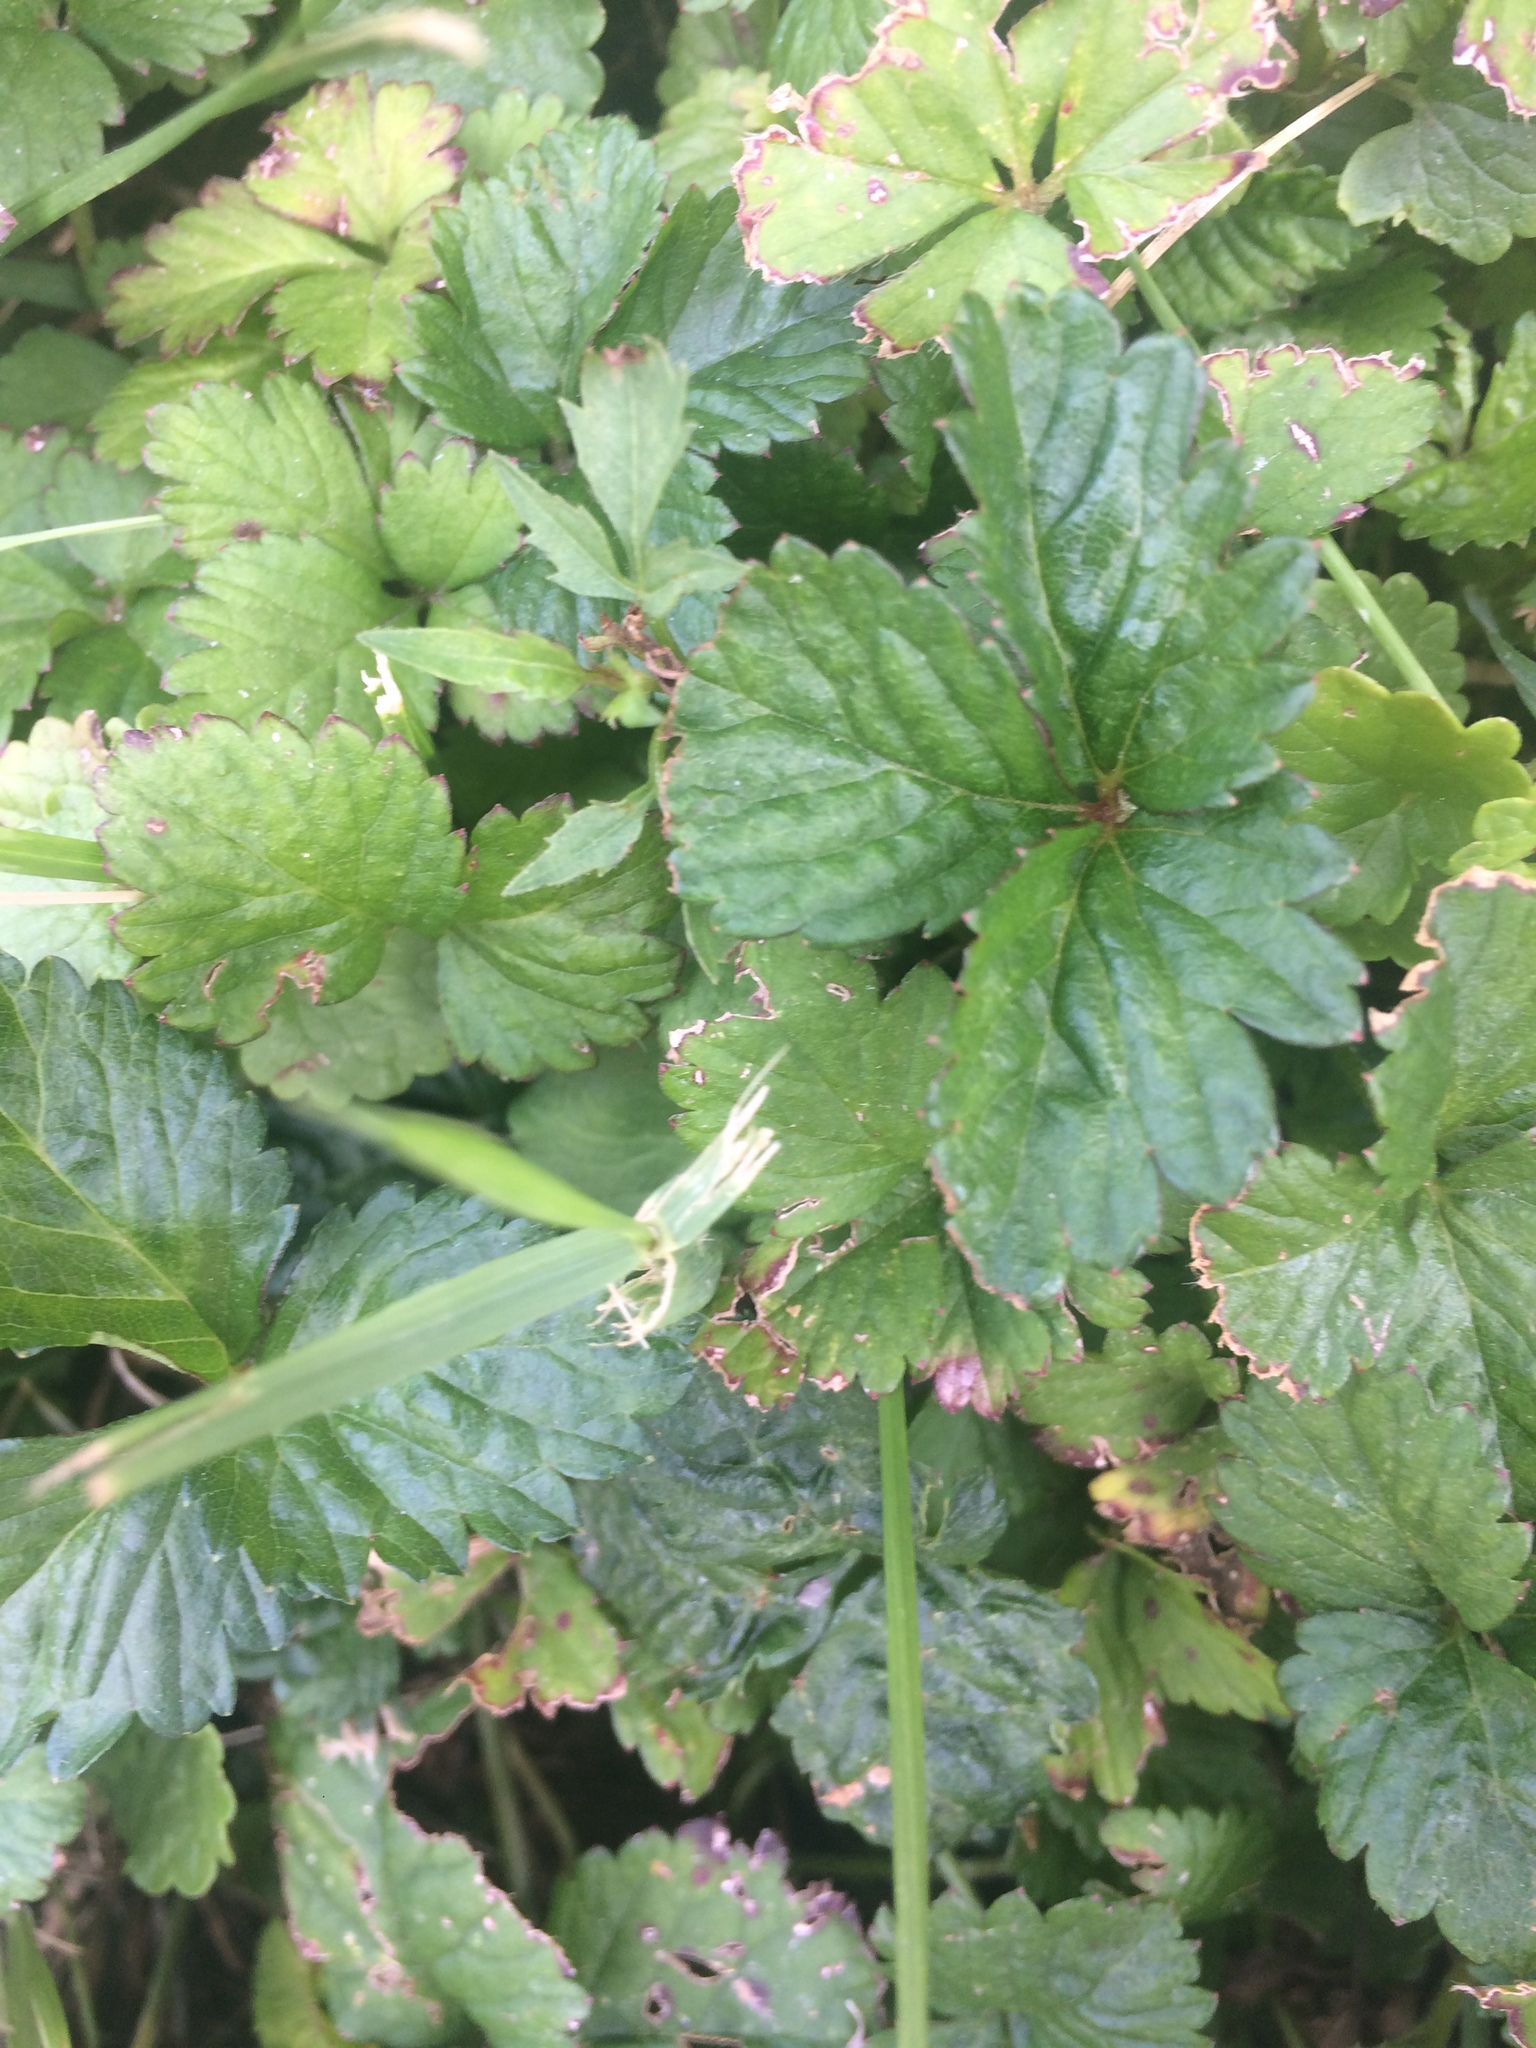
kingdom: Plantae
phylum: Tracheophyta
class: Magnoliopsida
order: Rosales
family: Rosaceae
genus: Potentilla
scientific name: Potentilla indica
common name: Yellow-flowered strawberry
